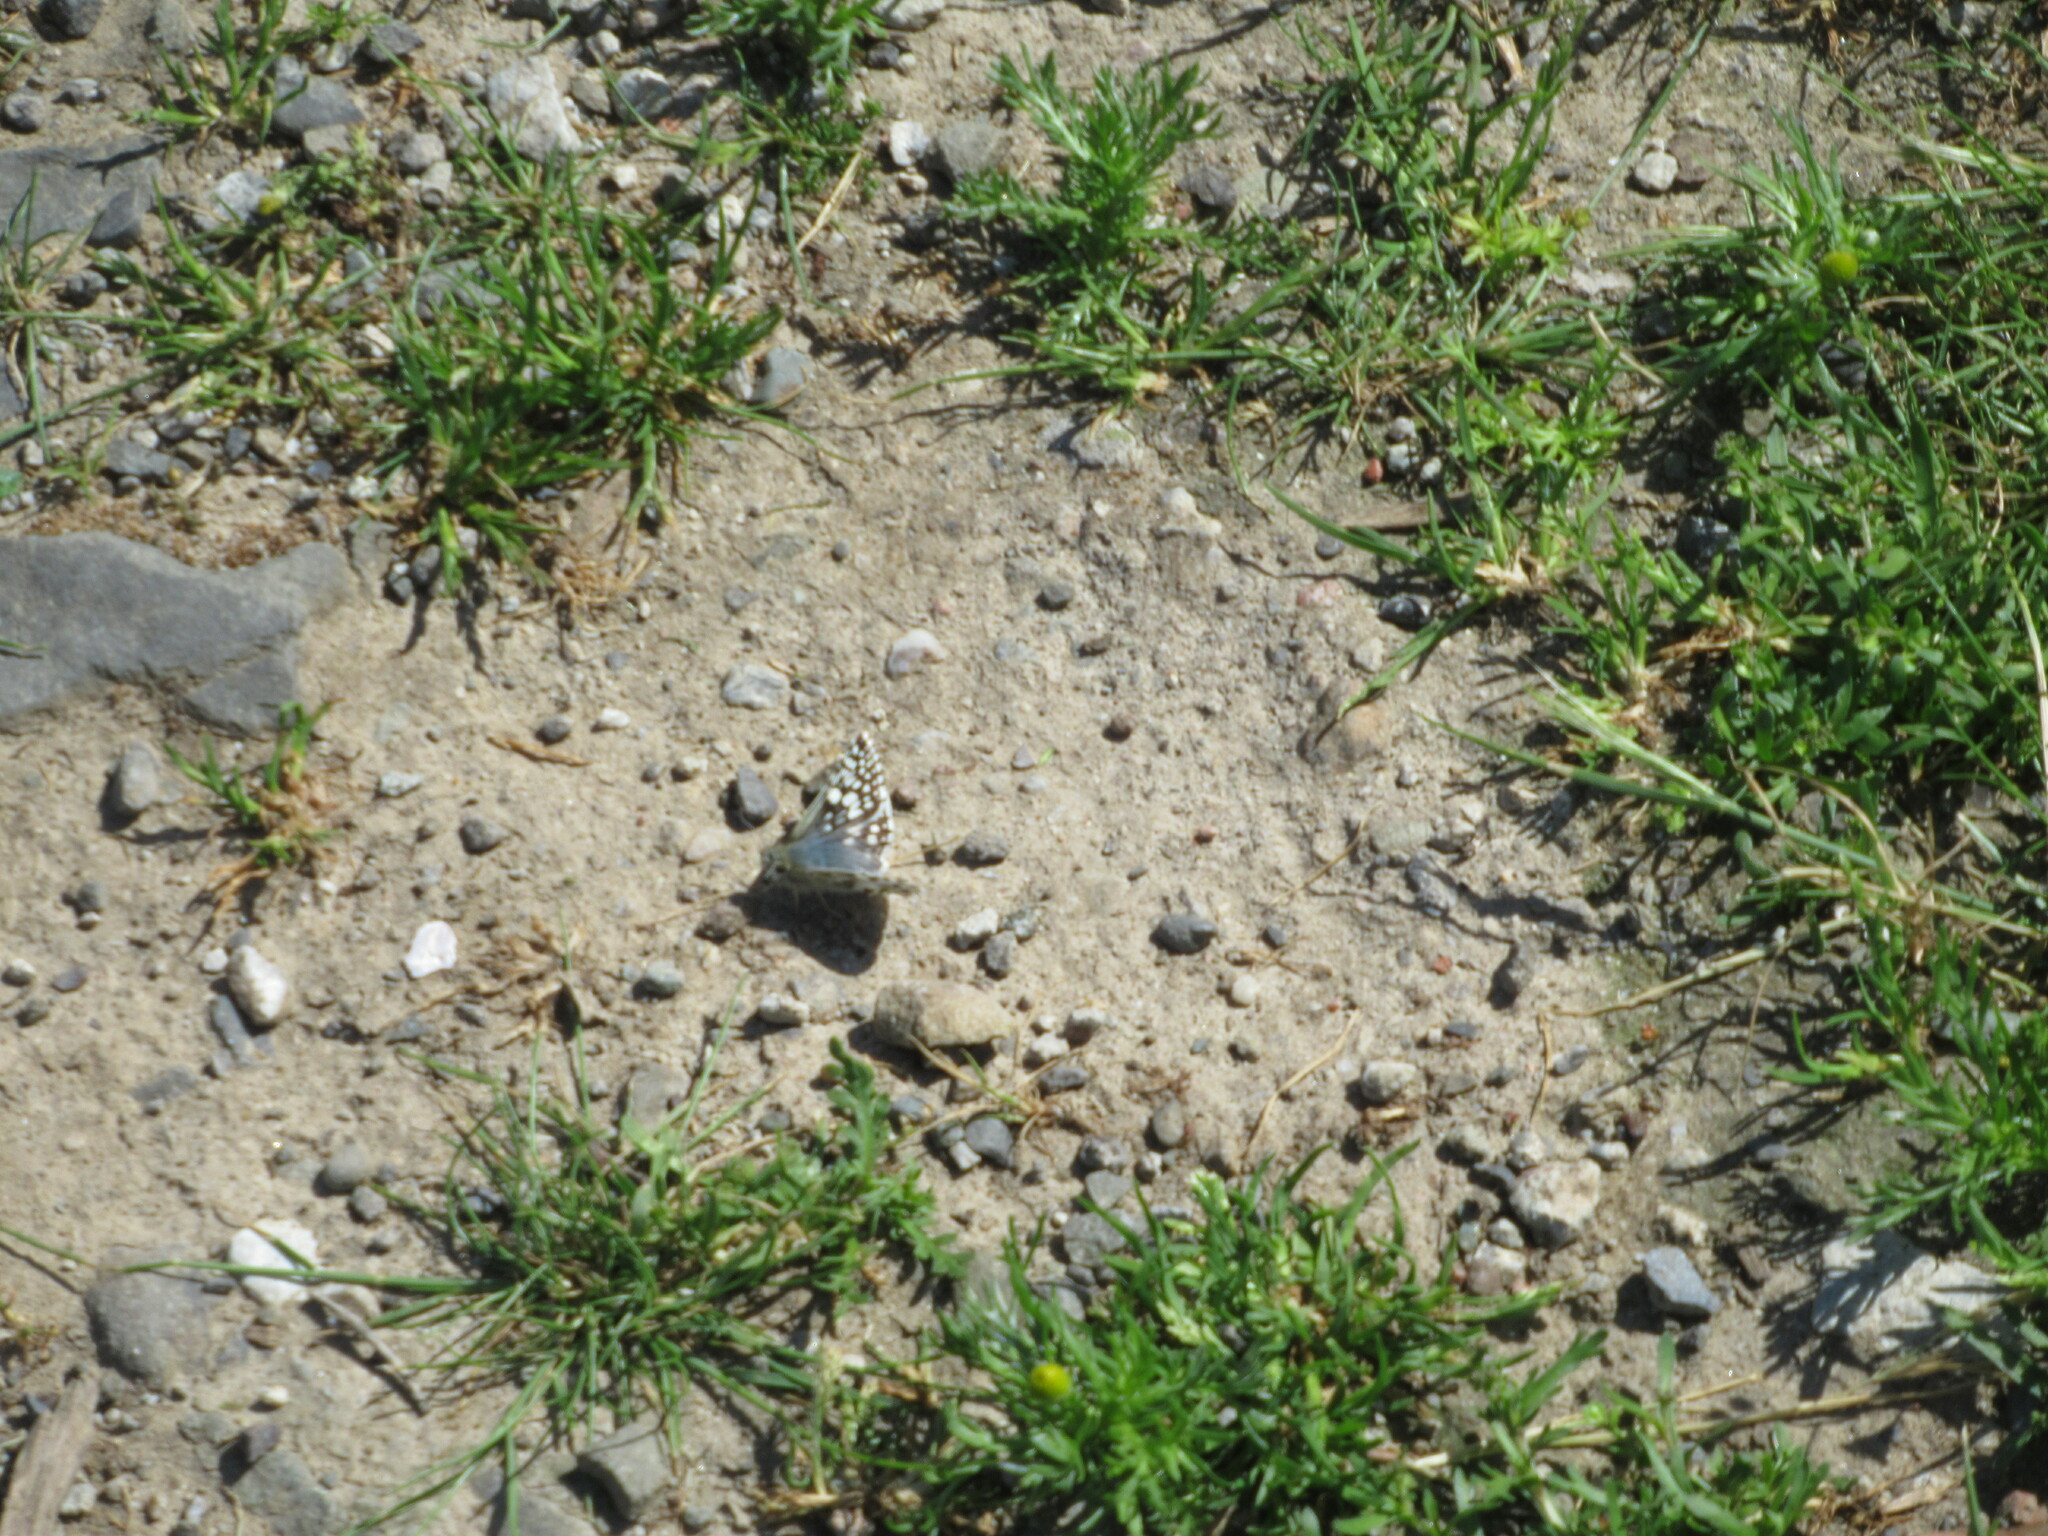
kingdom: Animalia
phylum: Arthropoda
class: Insecta
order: Lepidoptera
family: Hesperiidae
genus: Burnsius
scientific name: Burnsius communis
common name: Common checkered-skipper
